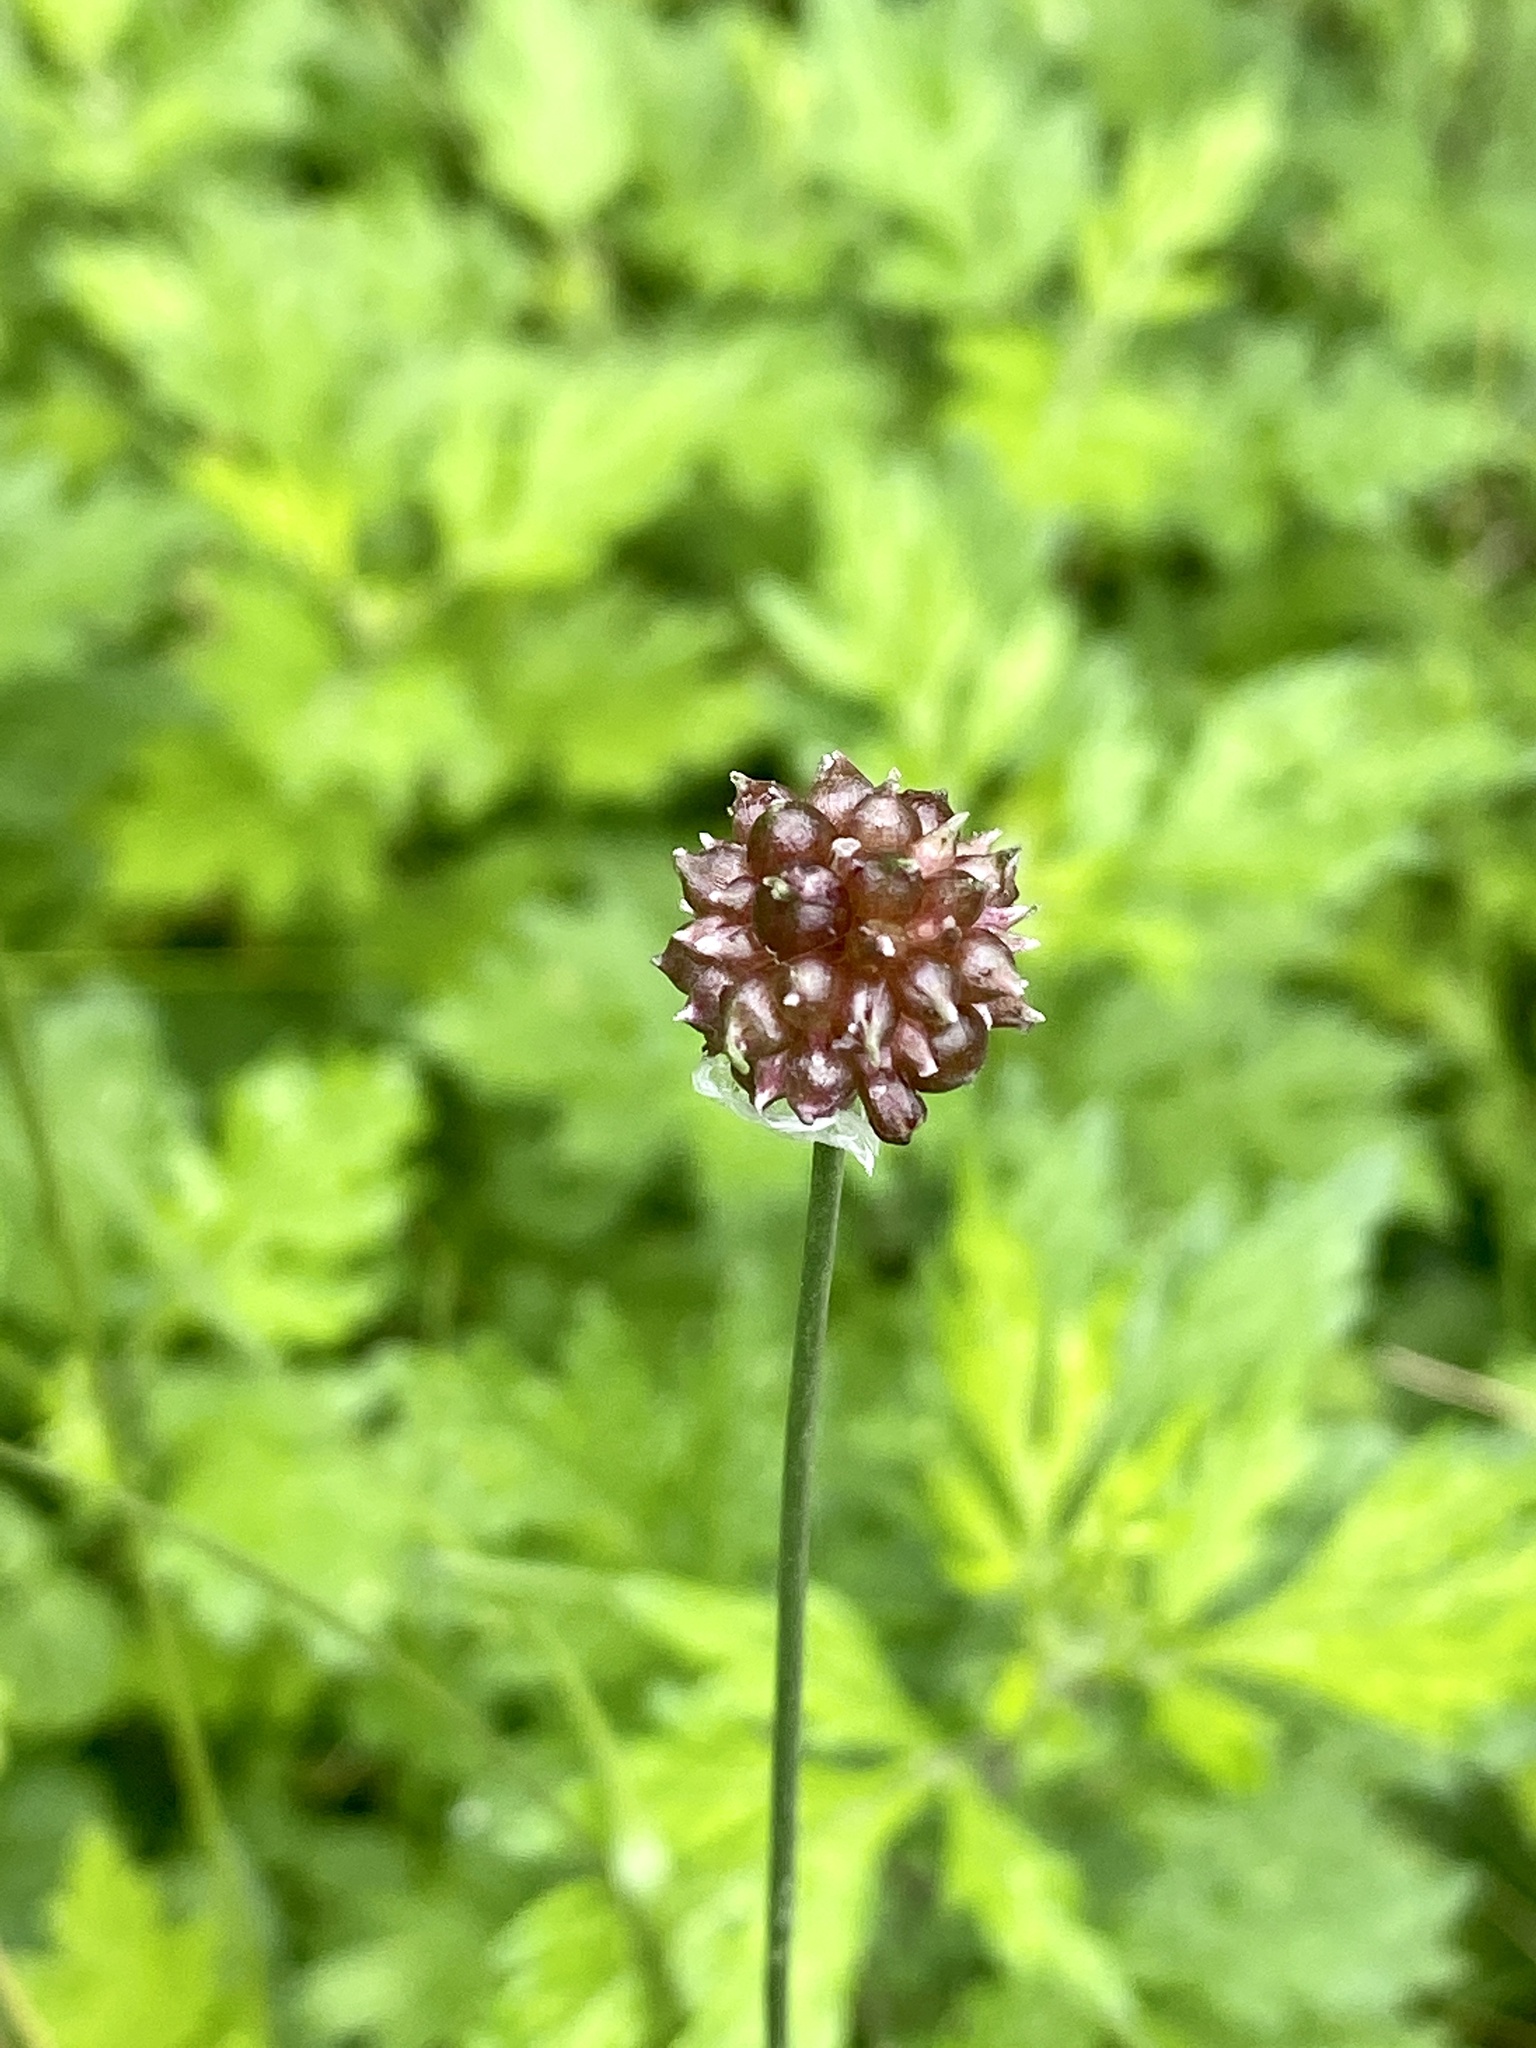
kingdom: Plantae
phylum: Tracheophyta
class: Liliopsida
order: Asparagales
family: Amaryllidaceae
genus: Allium
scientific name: Allium vineale
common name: Crow garlic
